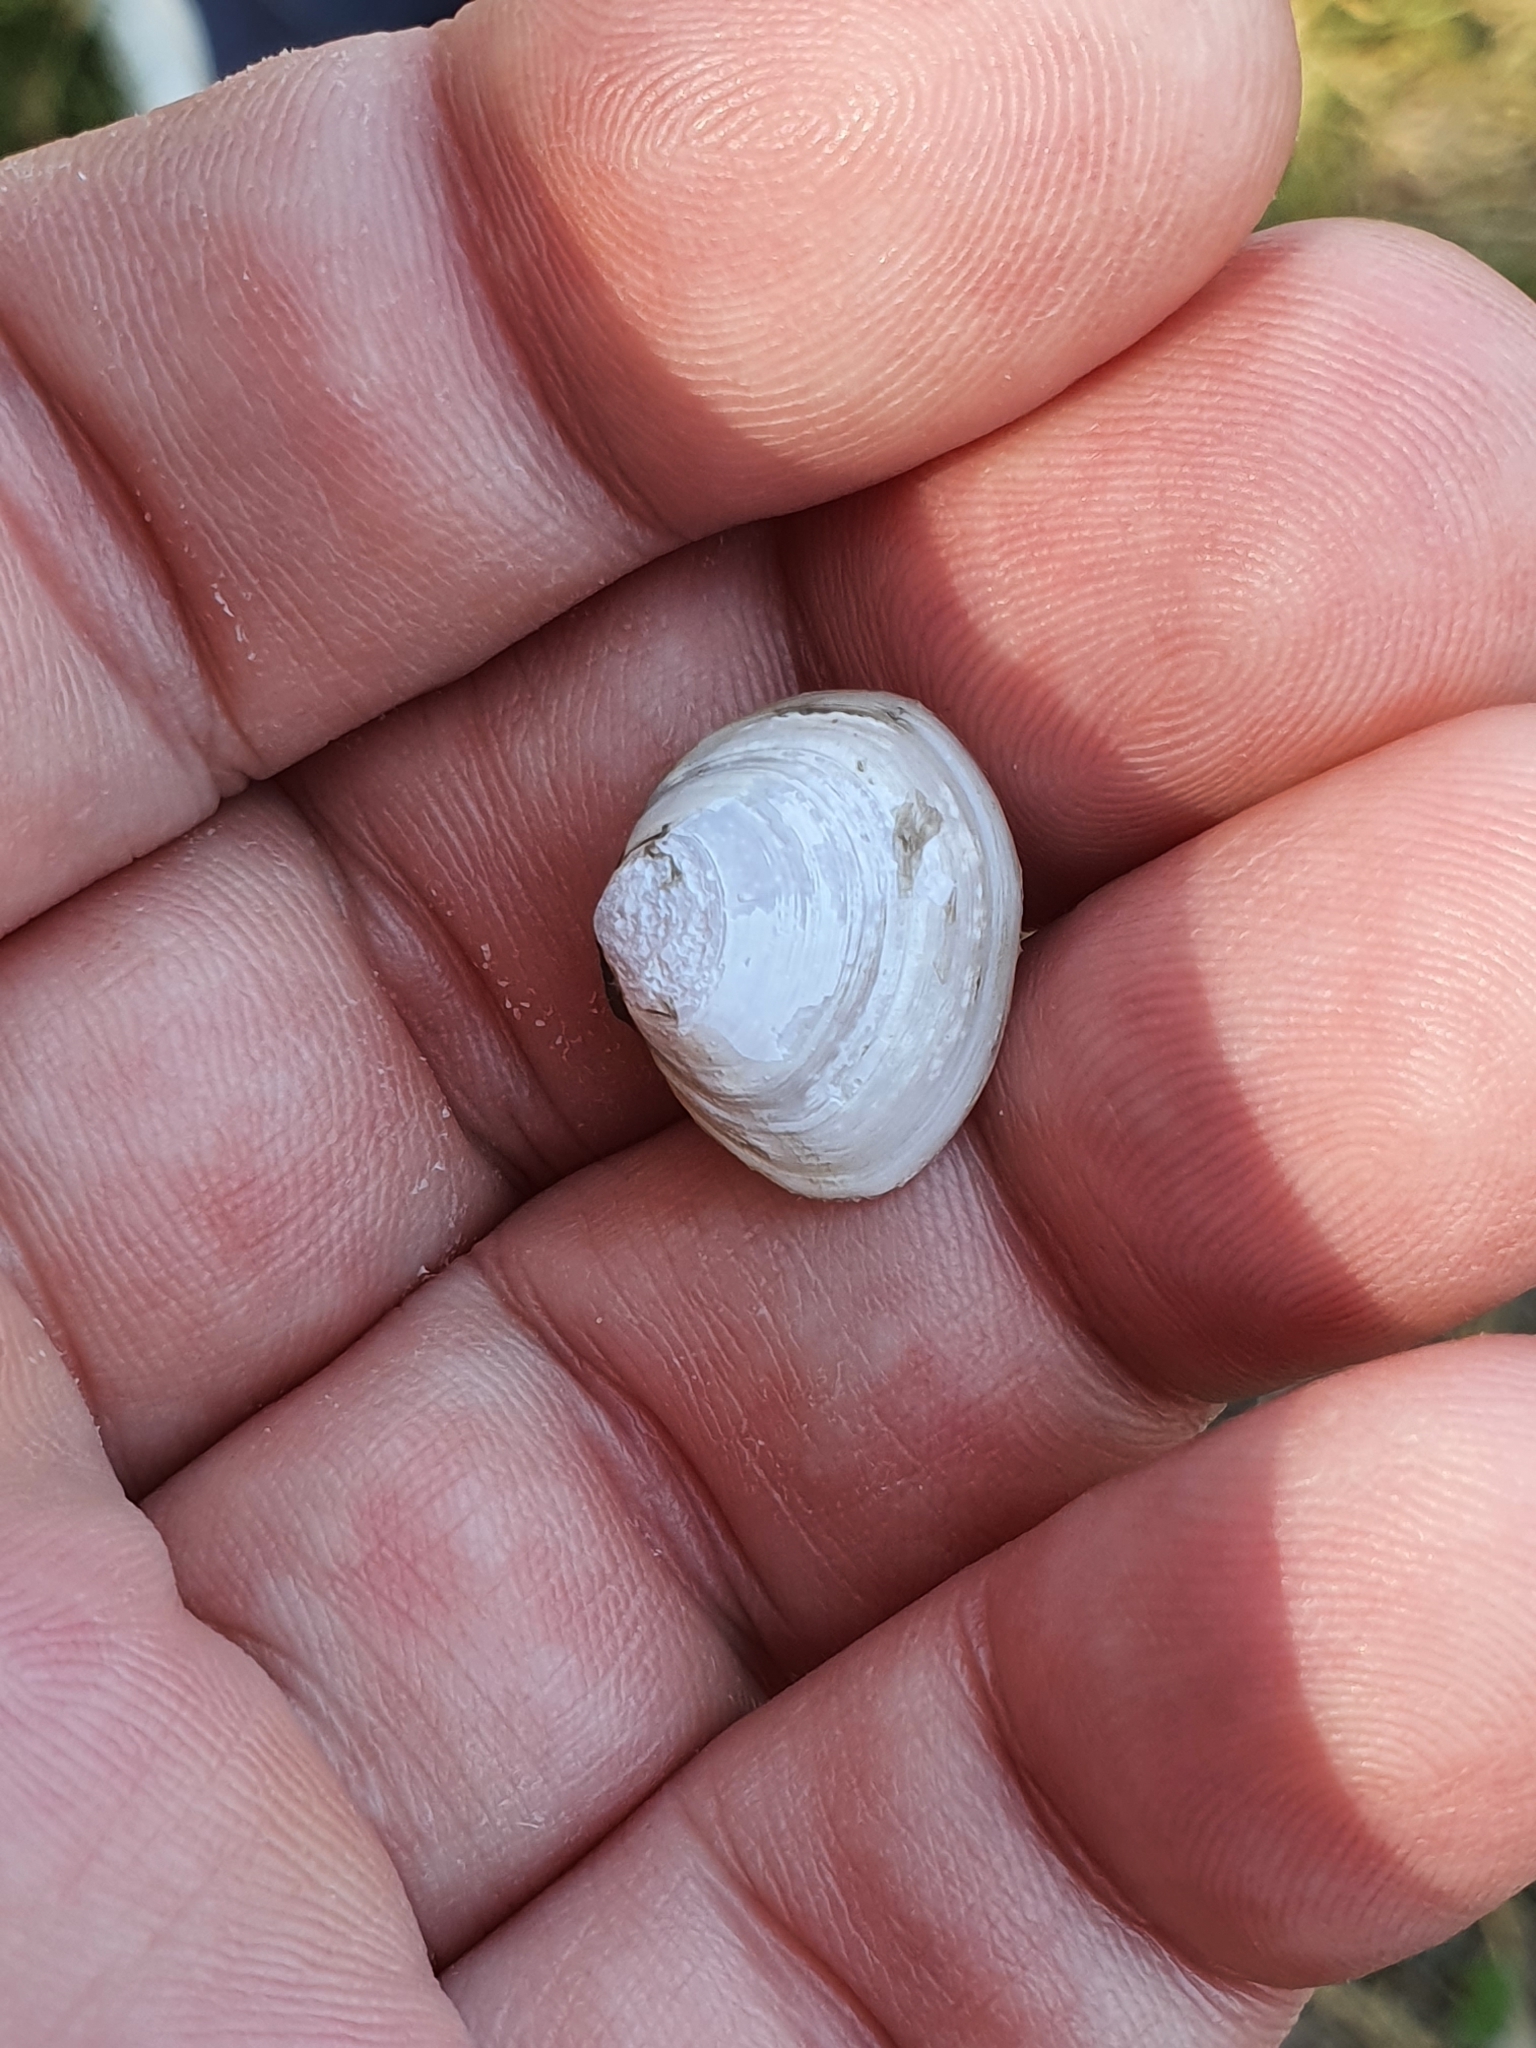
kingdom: Animalia
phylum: Mollusca
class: Bivalvia
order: Cardiida
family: Tellinidae
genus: Macoma
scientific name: Macoma balthica
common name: Baltic tellin
